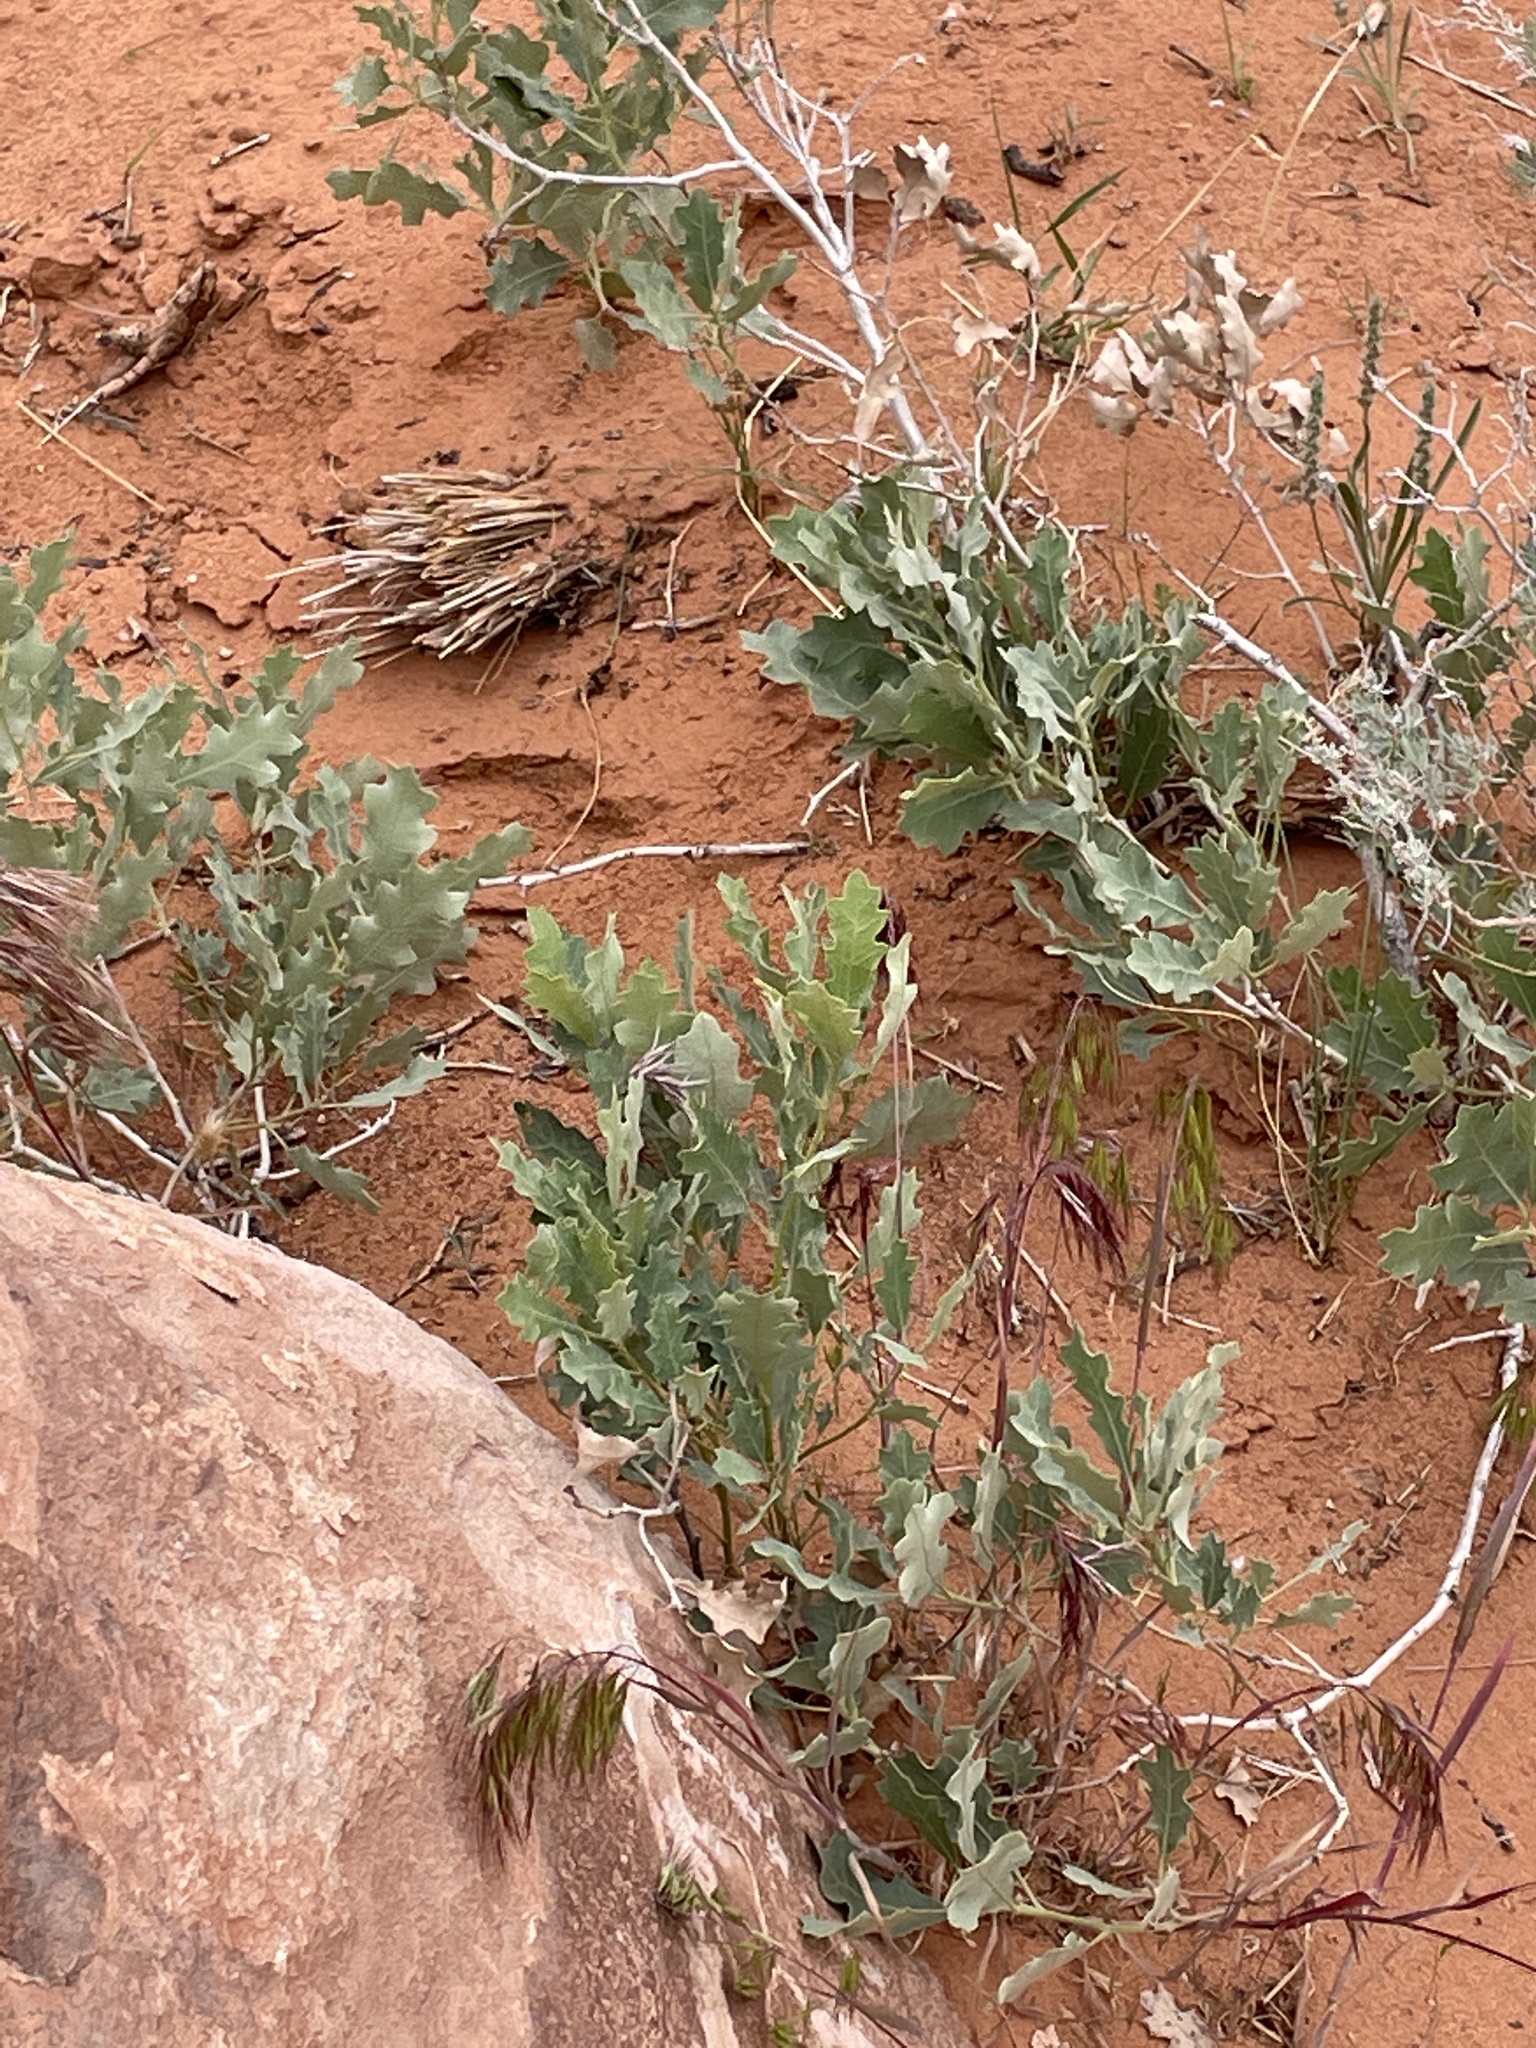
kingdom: Plantae
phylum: Tracheophyta
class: Magnoliopsida
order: Fagales
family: Fagaceae
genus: Quercus
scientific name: Quercus welshii
